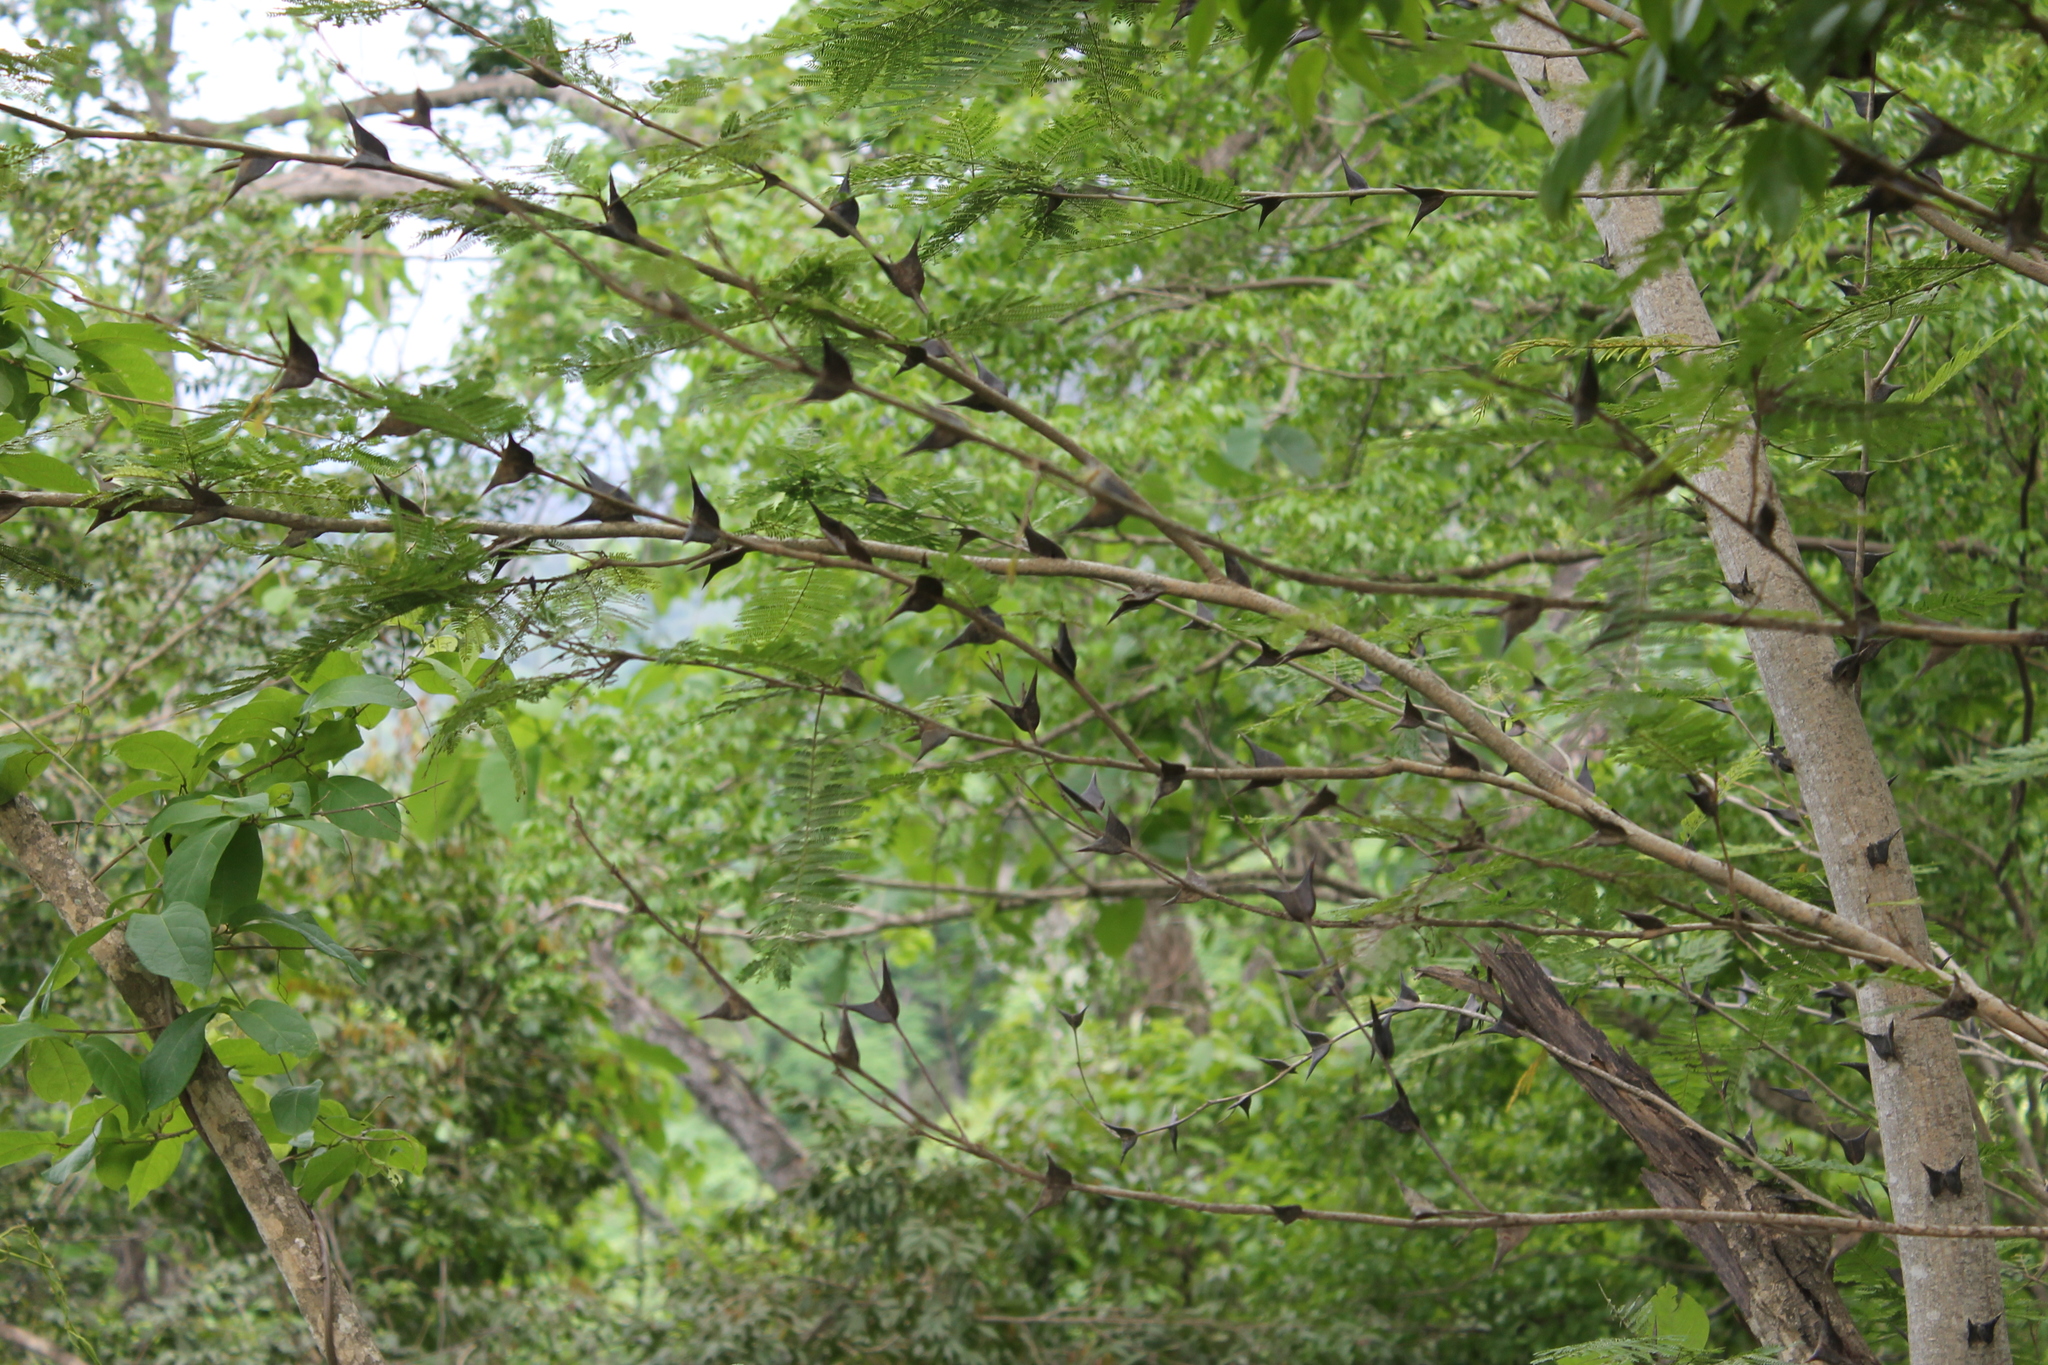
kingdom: Plantae
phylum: Tracheophyta
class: Magnoliopsida
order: Fabales
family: Fabaceae
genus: Vachellia
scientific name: Vachellia hindsii
